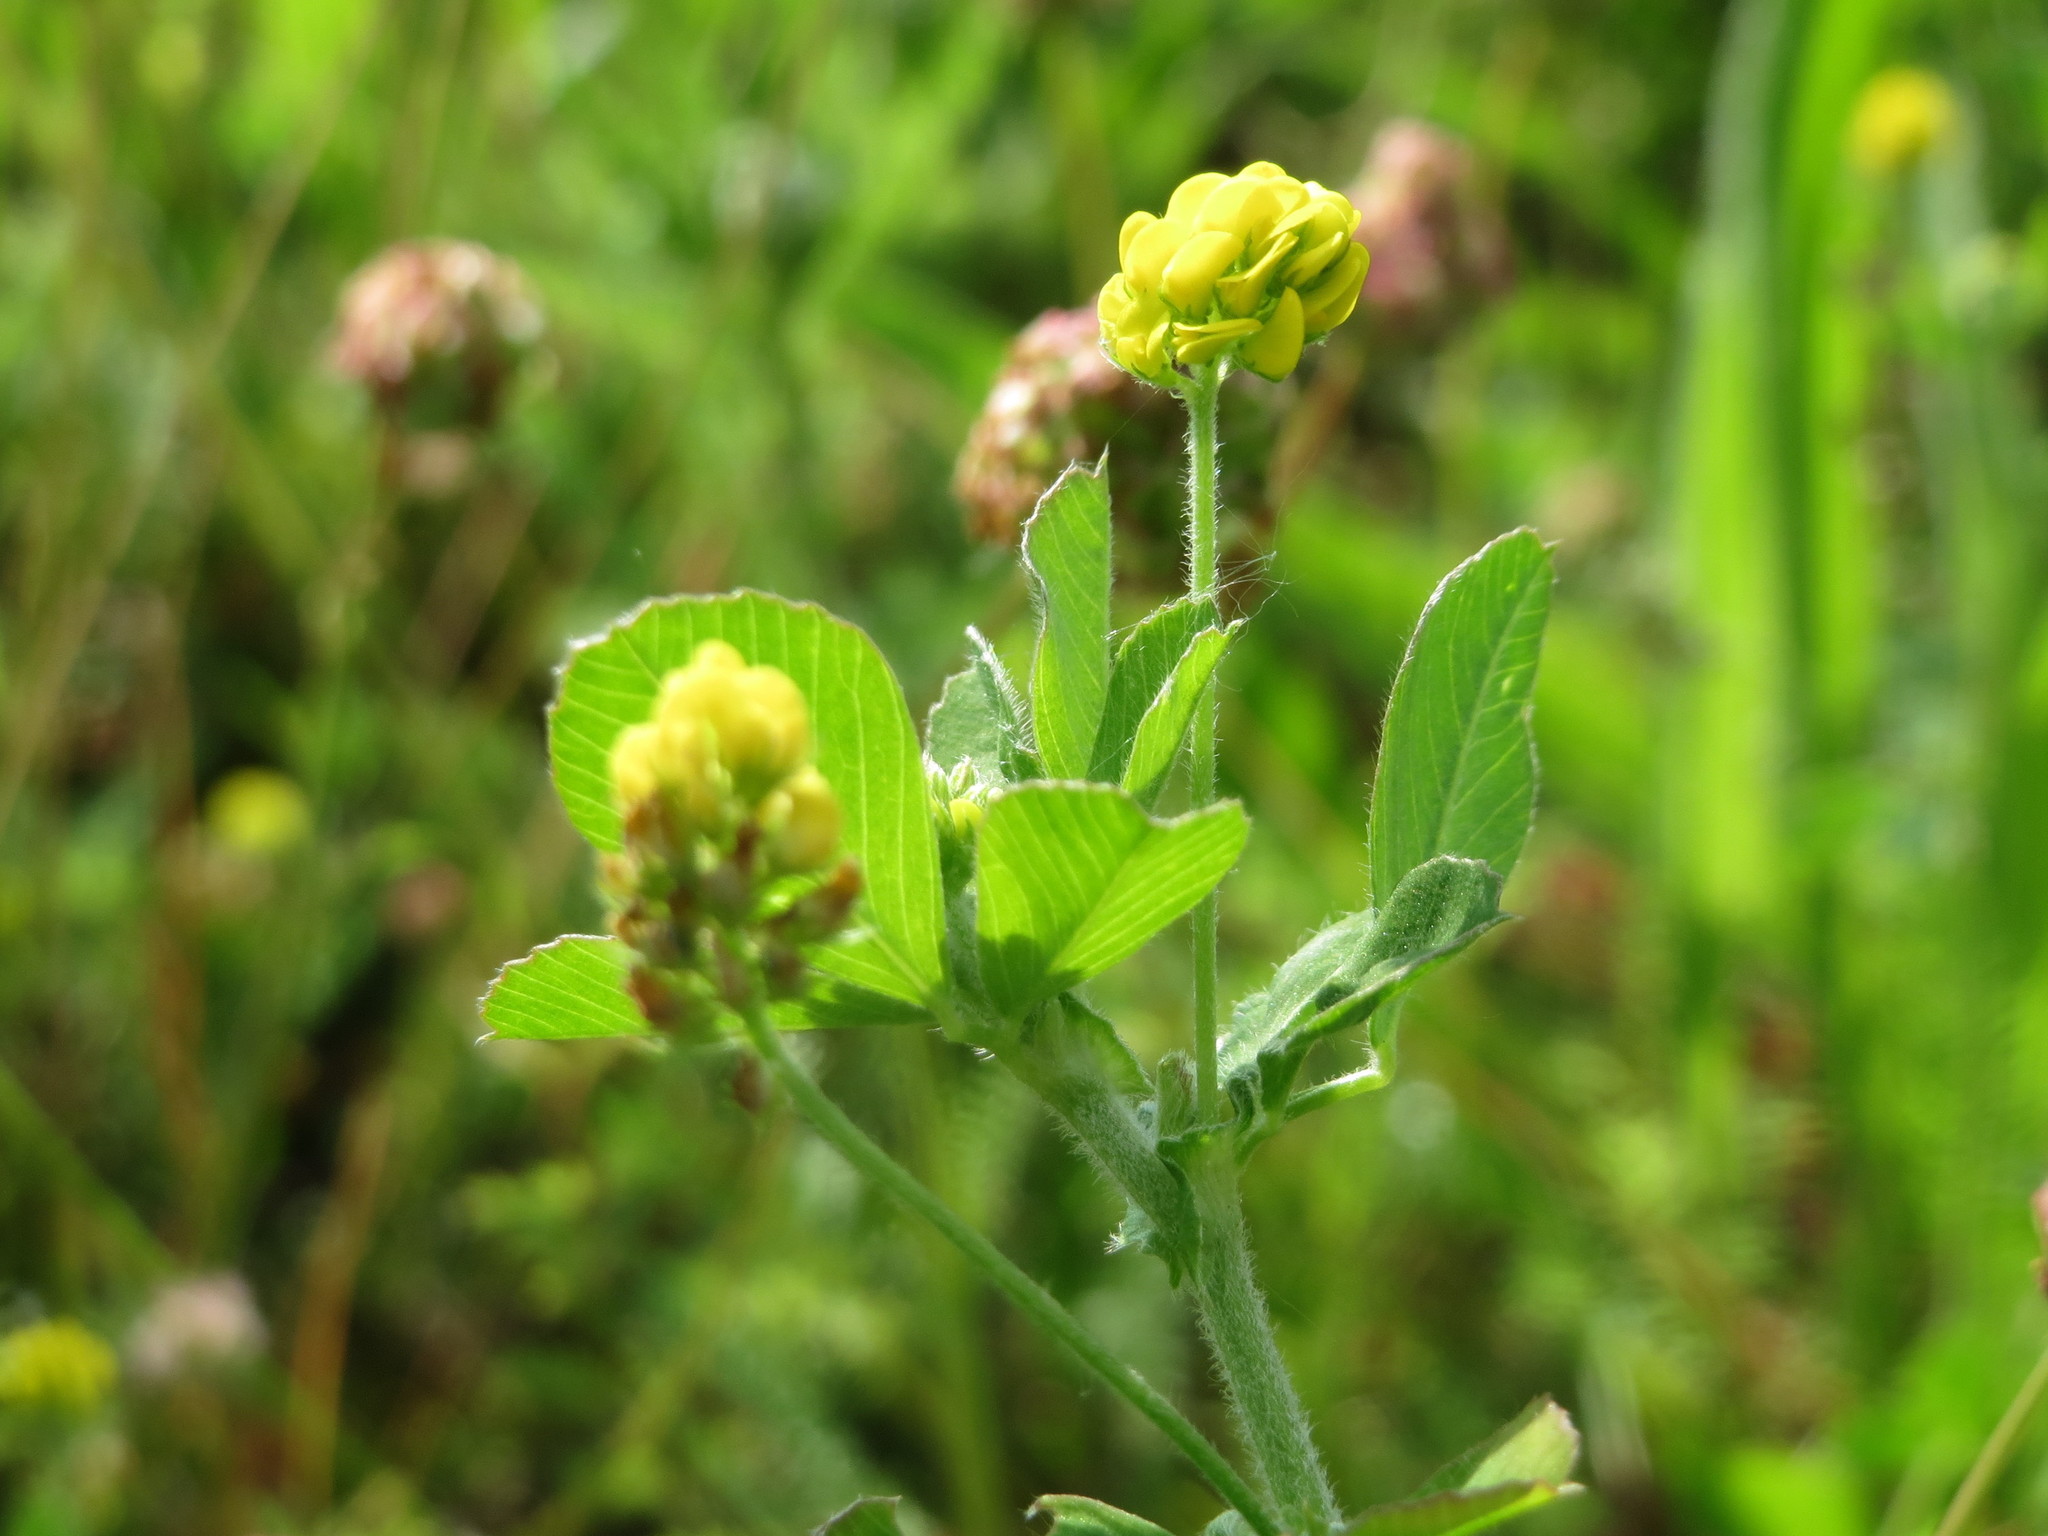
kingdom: Plantae
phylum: Tracheophyta
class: Magnoliopsida
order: Fabales
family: Fabaceae
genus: Medicago
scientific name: Medicago lupulina
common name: Black medick
